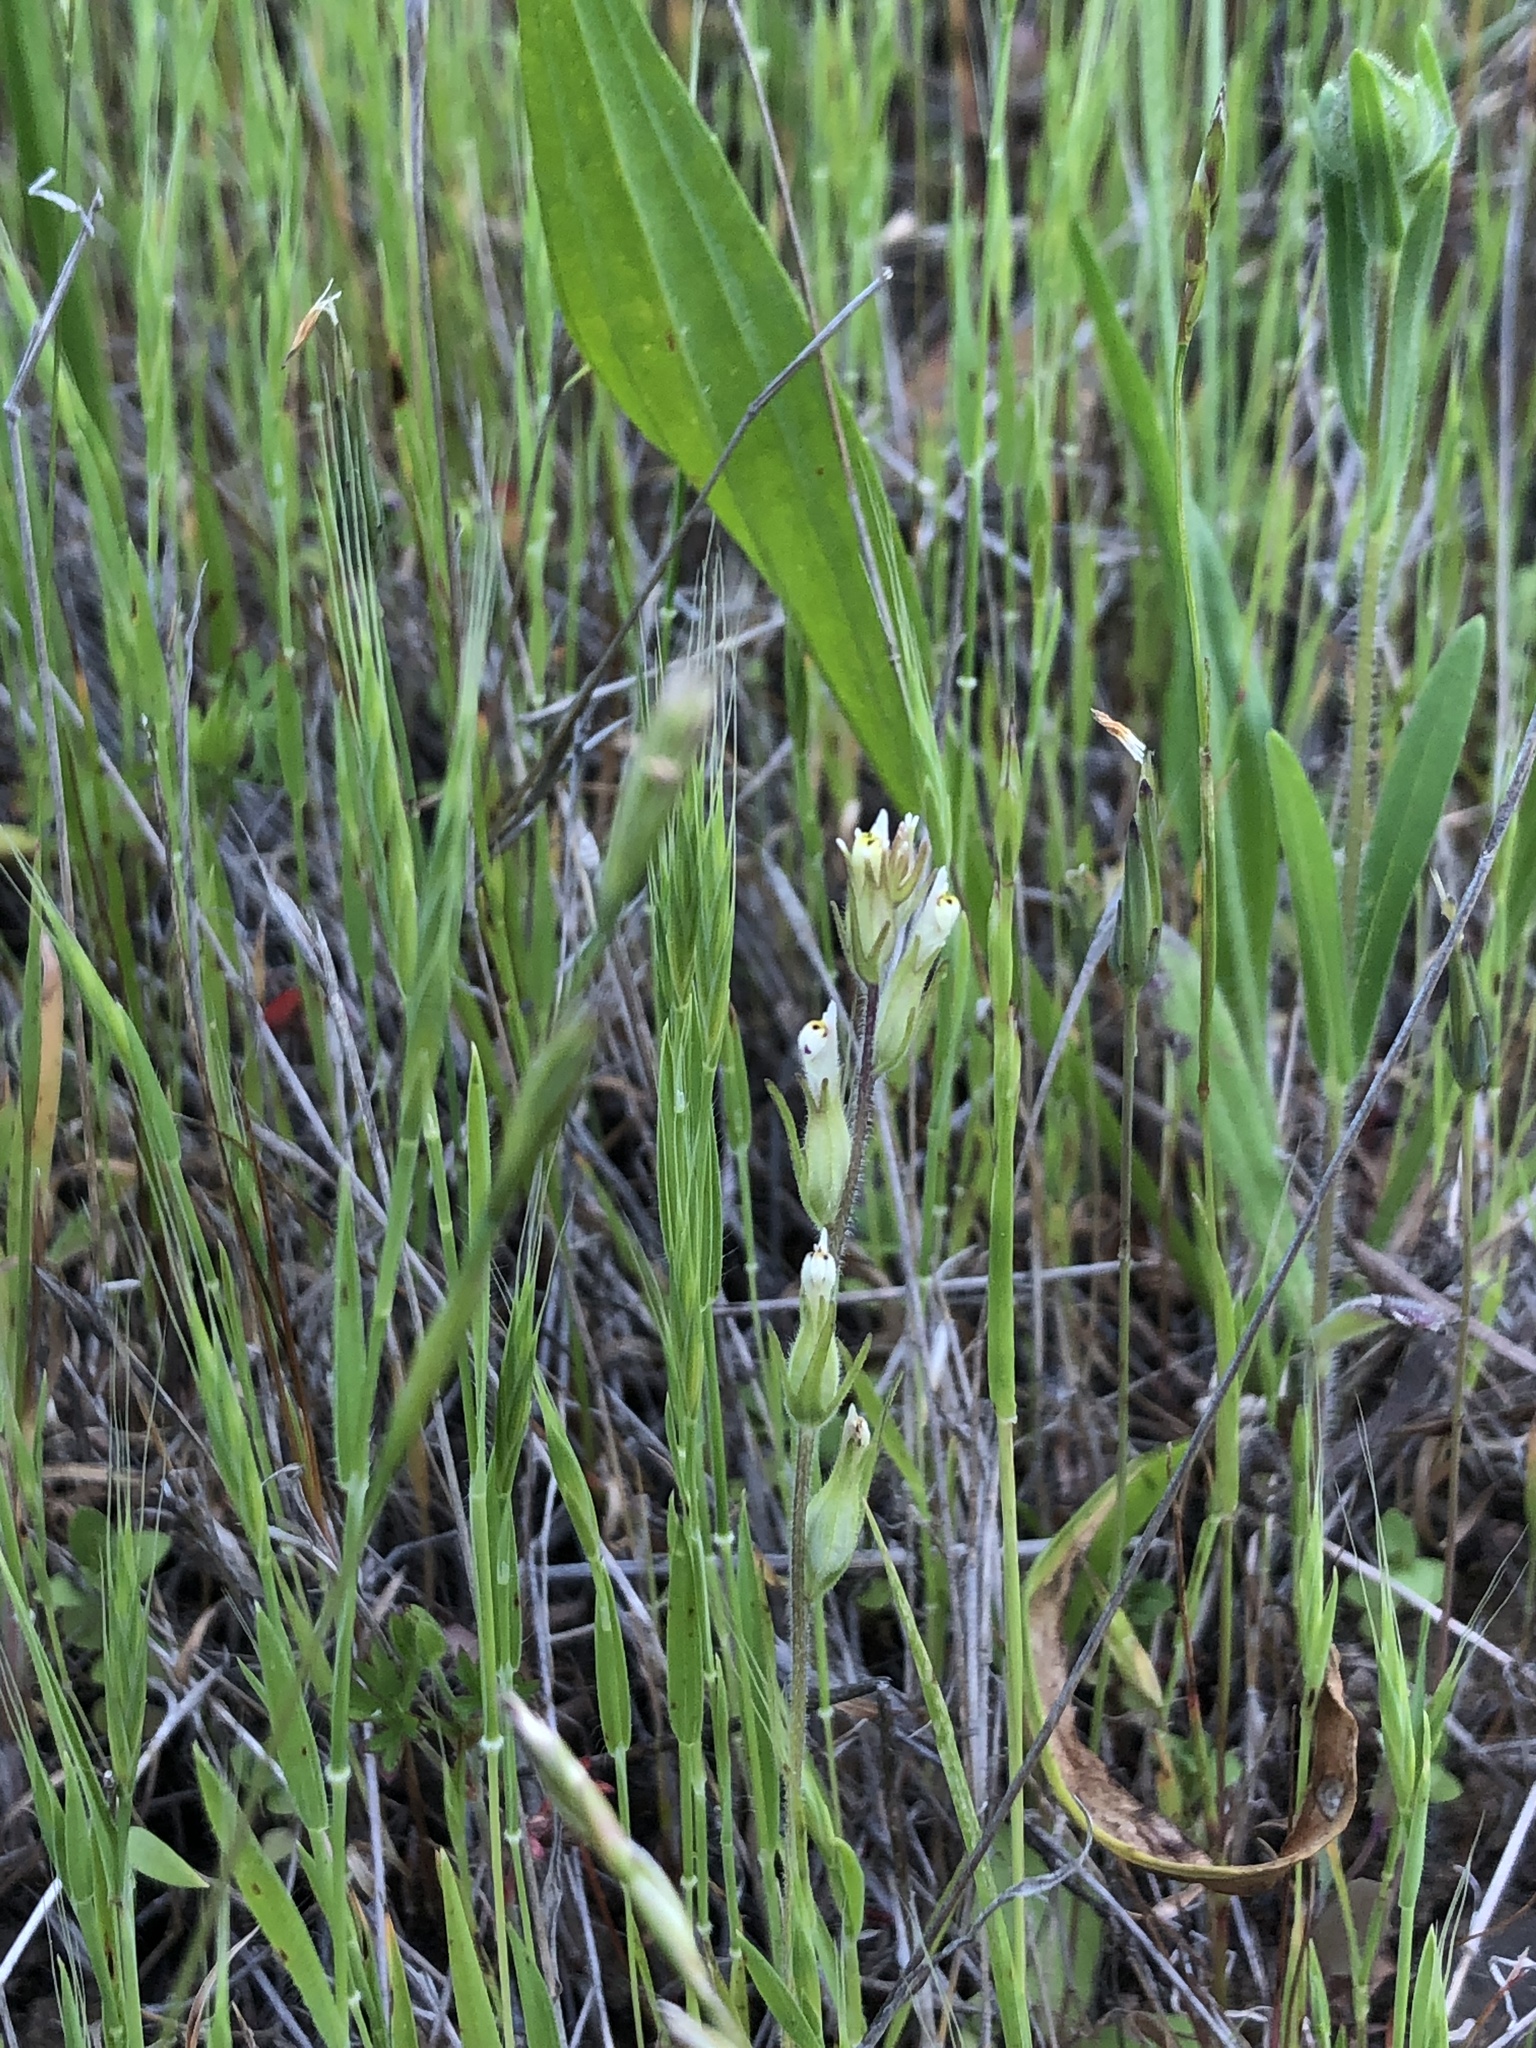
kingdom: Plantae
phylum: Tracheophyta
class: Magnoliopsida
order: Lamiales
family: Orobanchaceae
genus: Castilleja
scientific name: Castilleja attenuata
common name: Valley tassels
